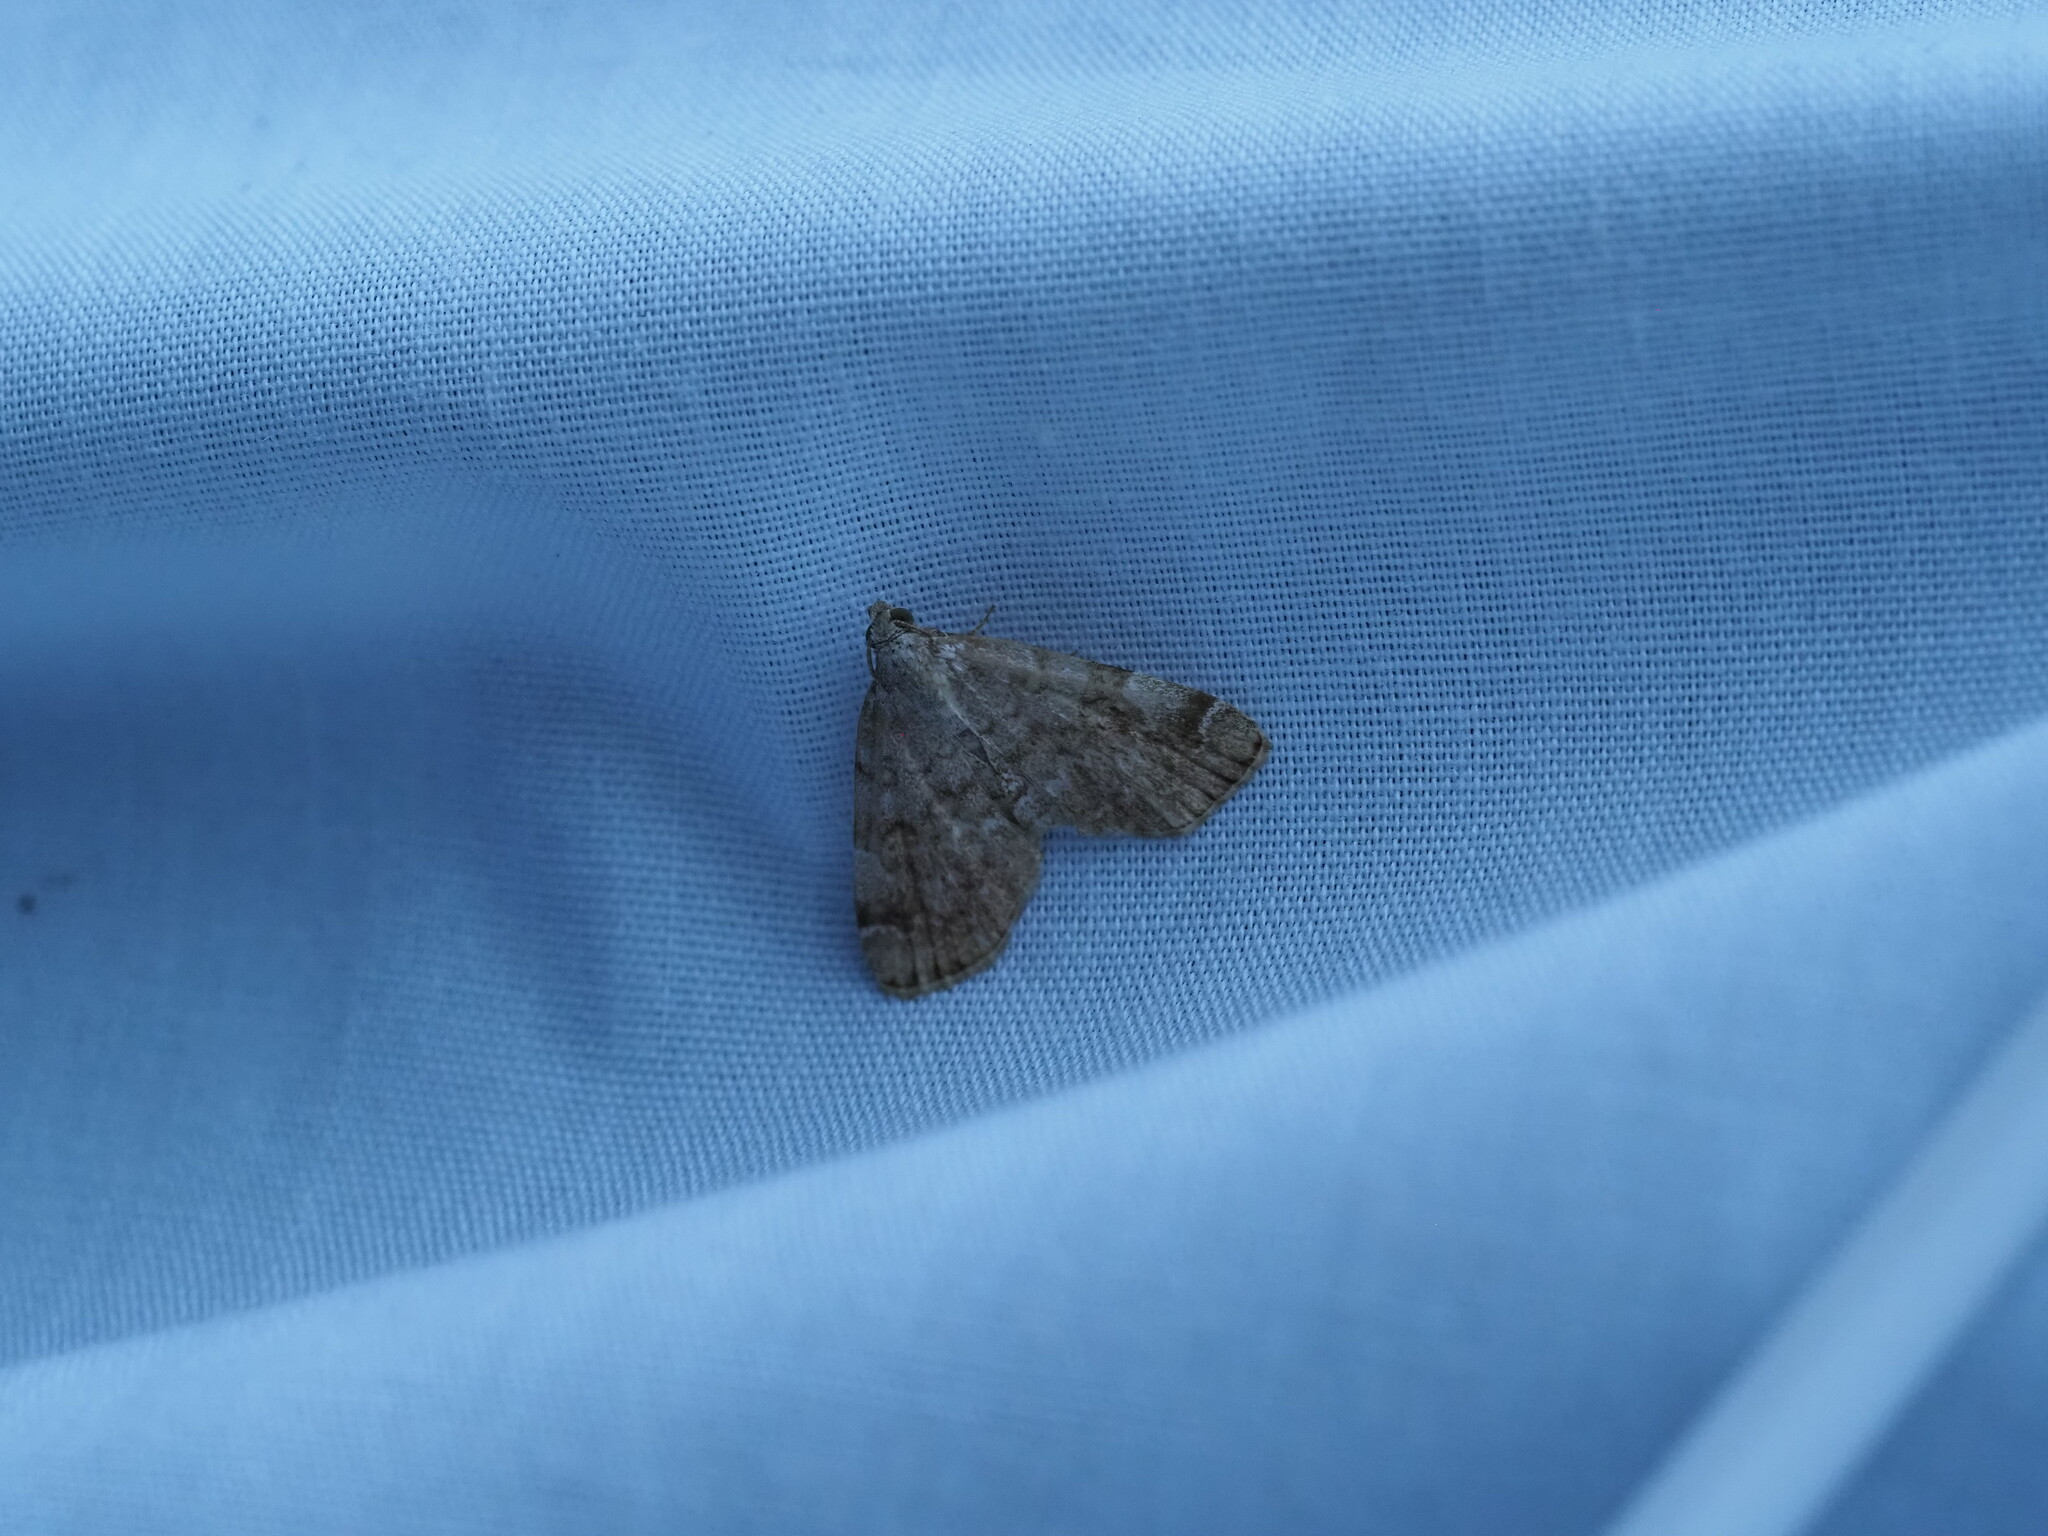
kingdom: Animalia
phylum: Arthropoda
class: Insecta
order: Lepidoptera
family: Erebidae
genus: Idia
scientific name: Idia americalis
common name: American idia moth
